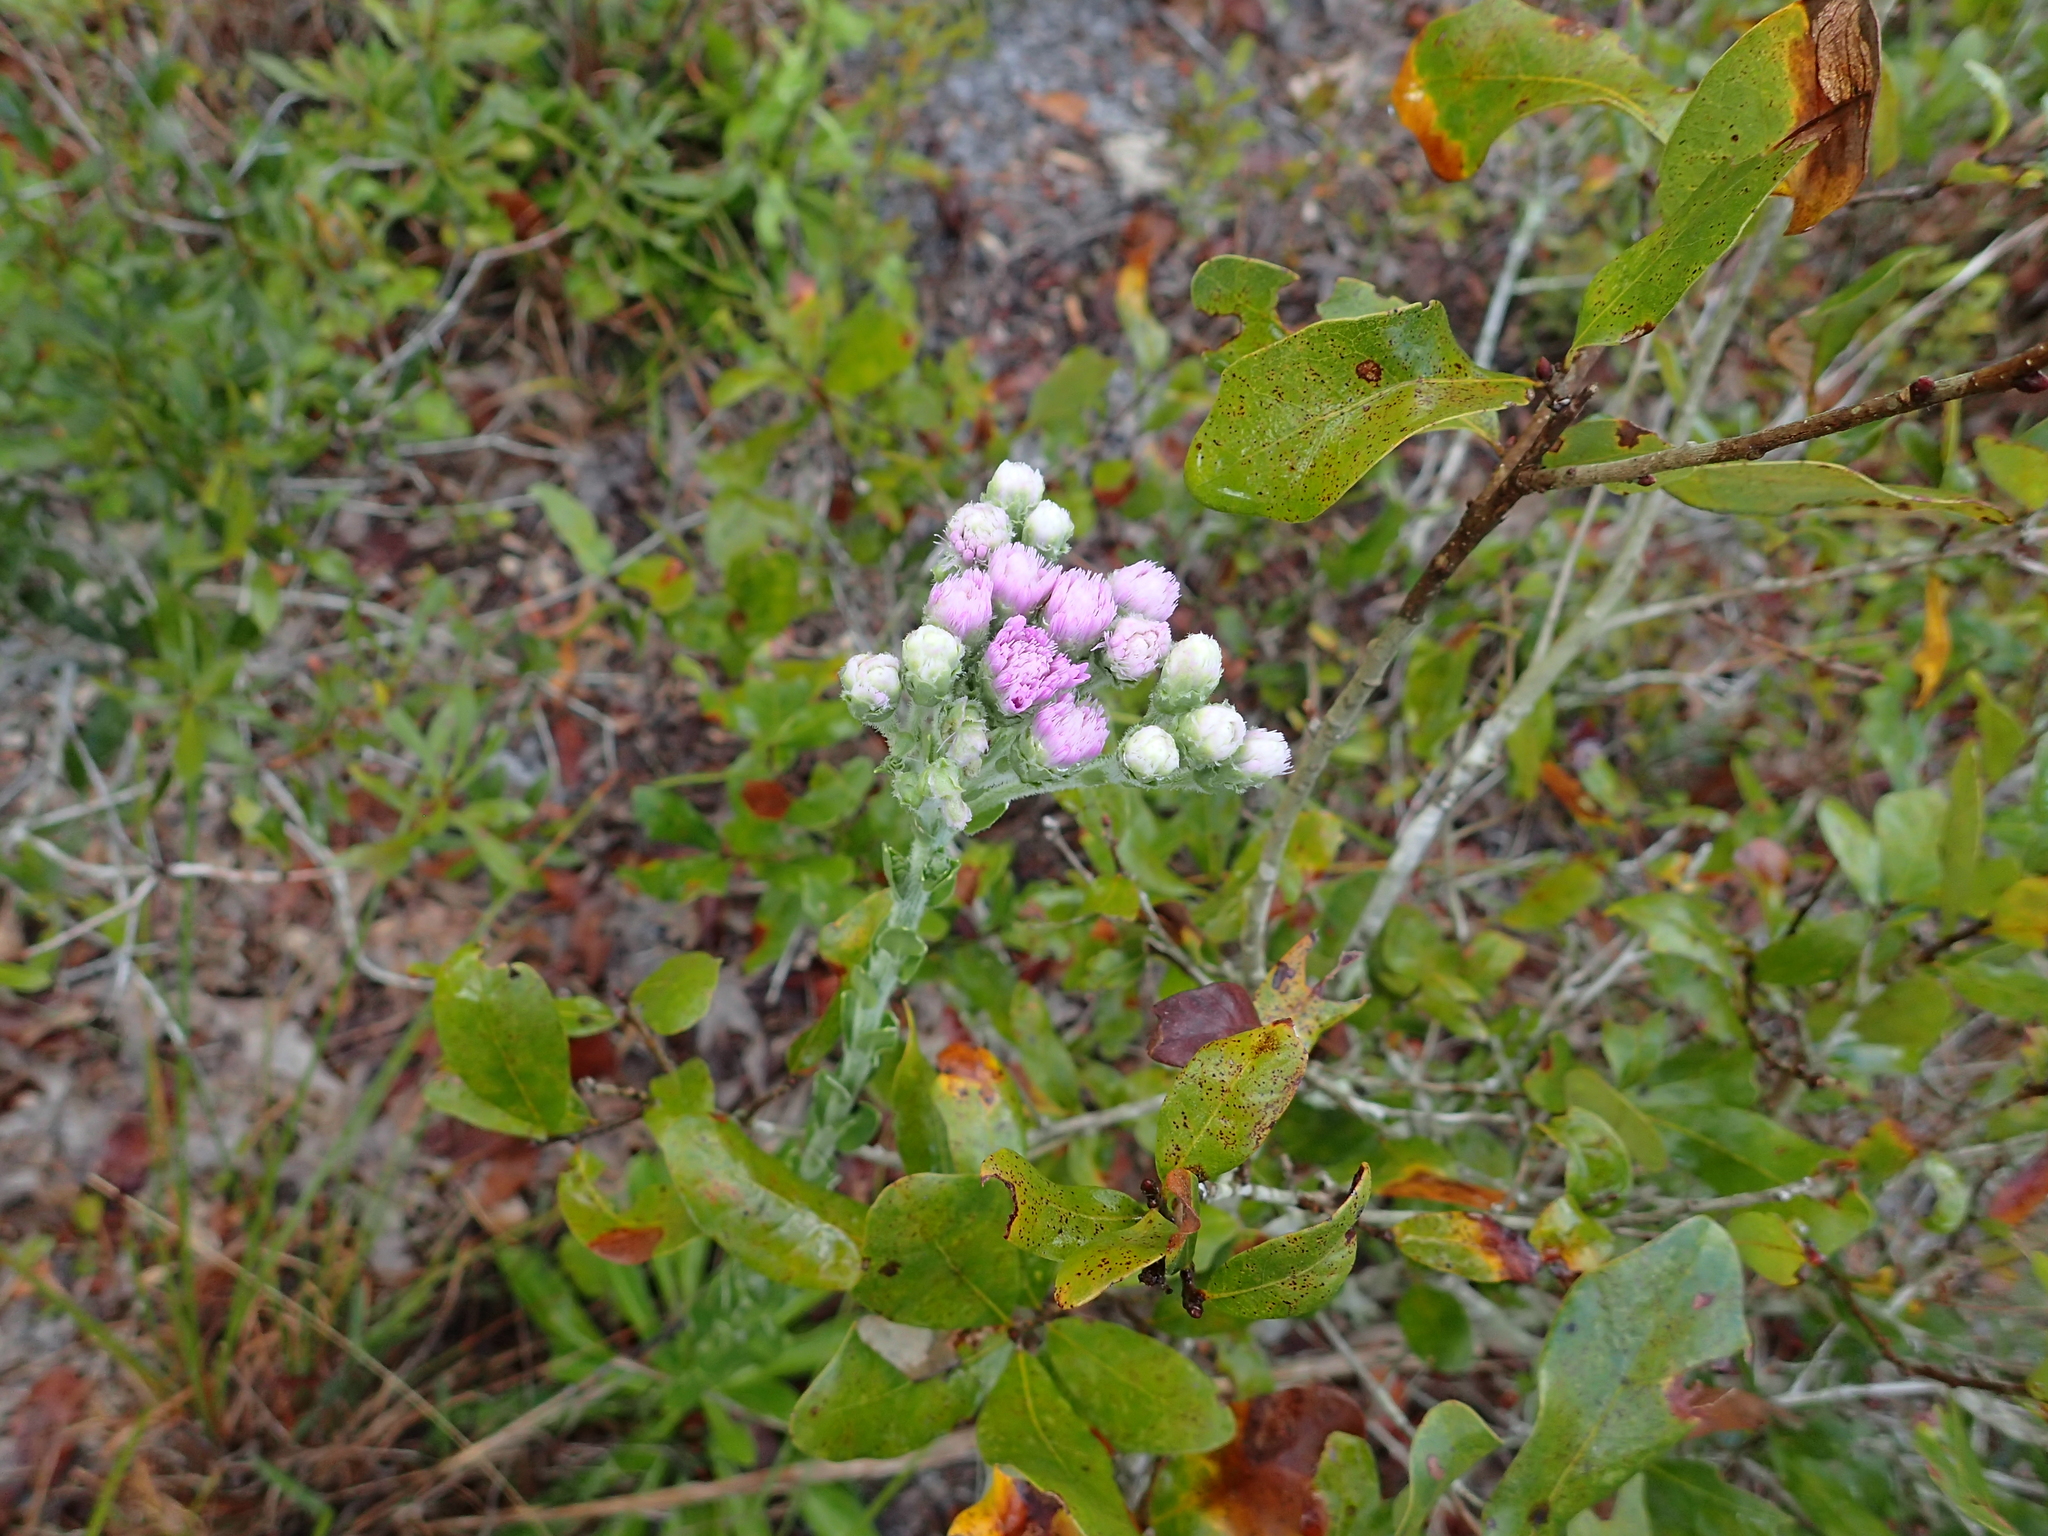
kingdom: Plantae
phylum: Tracheophyta
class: Magnoliopsida
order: Asterales
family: Asteraceae
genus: Carphephorus
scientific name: Carphephorus corymbosus
